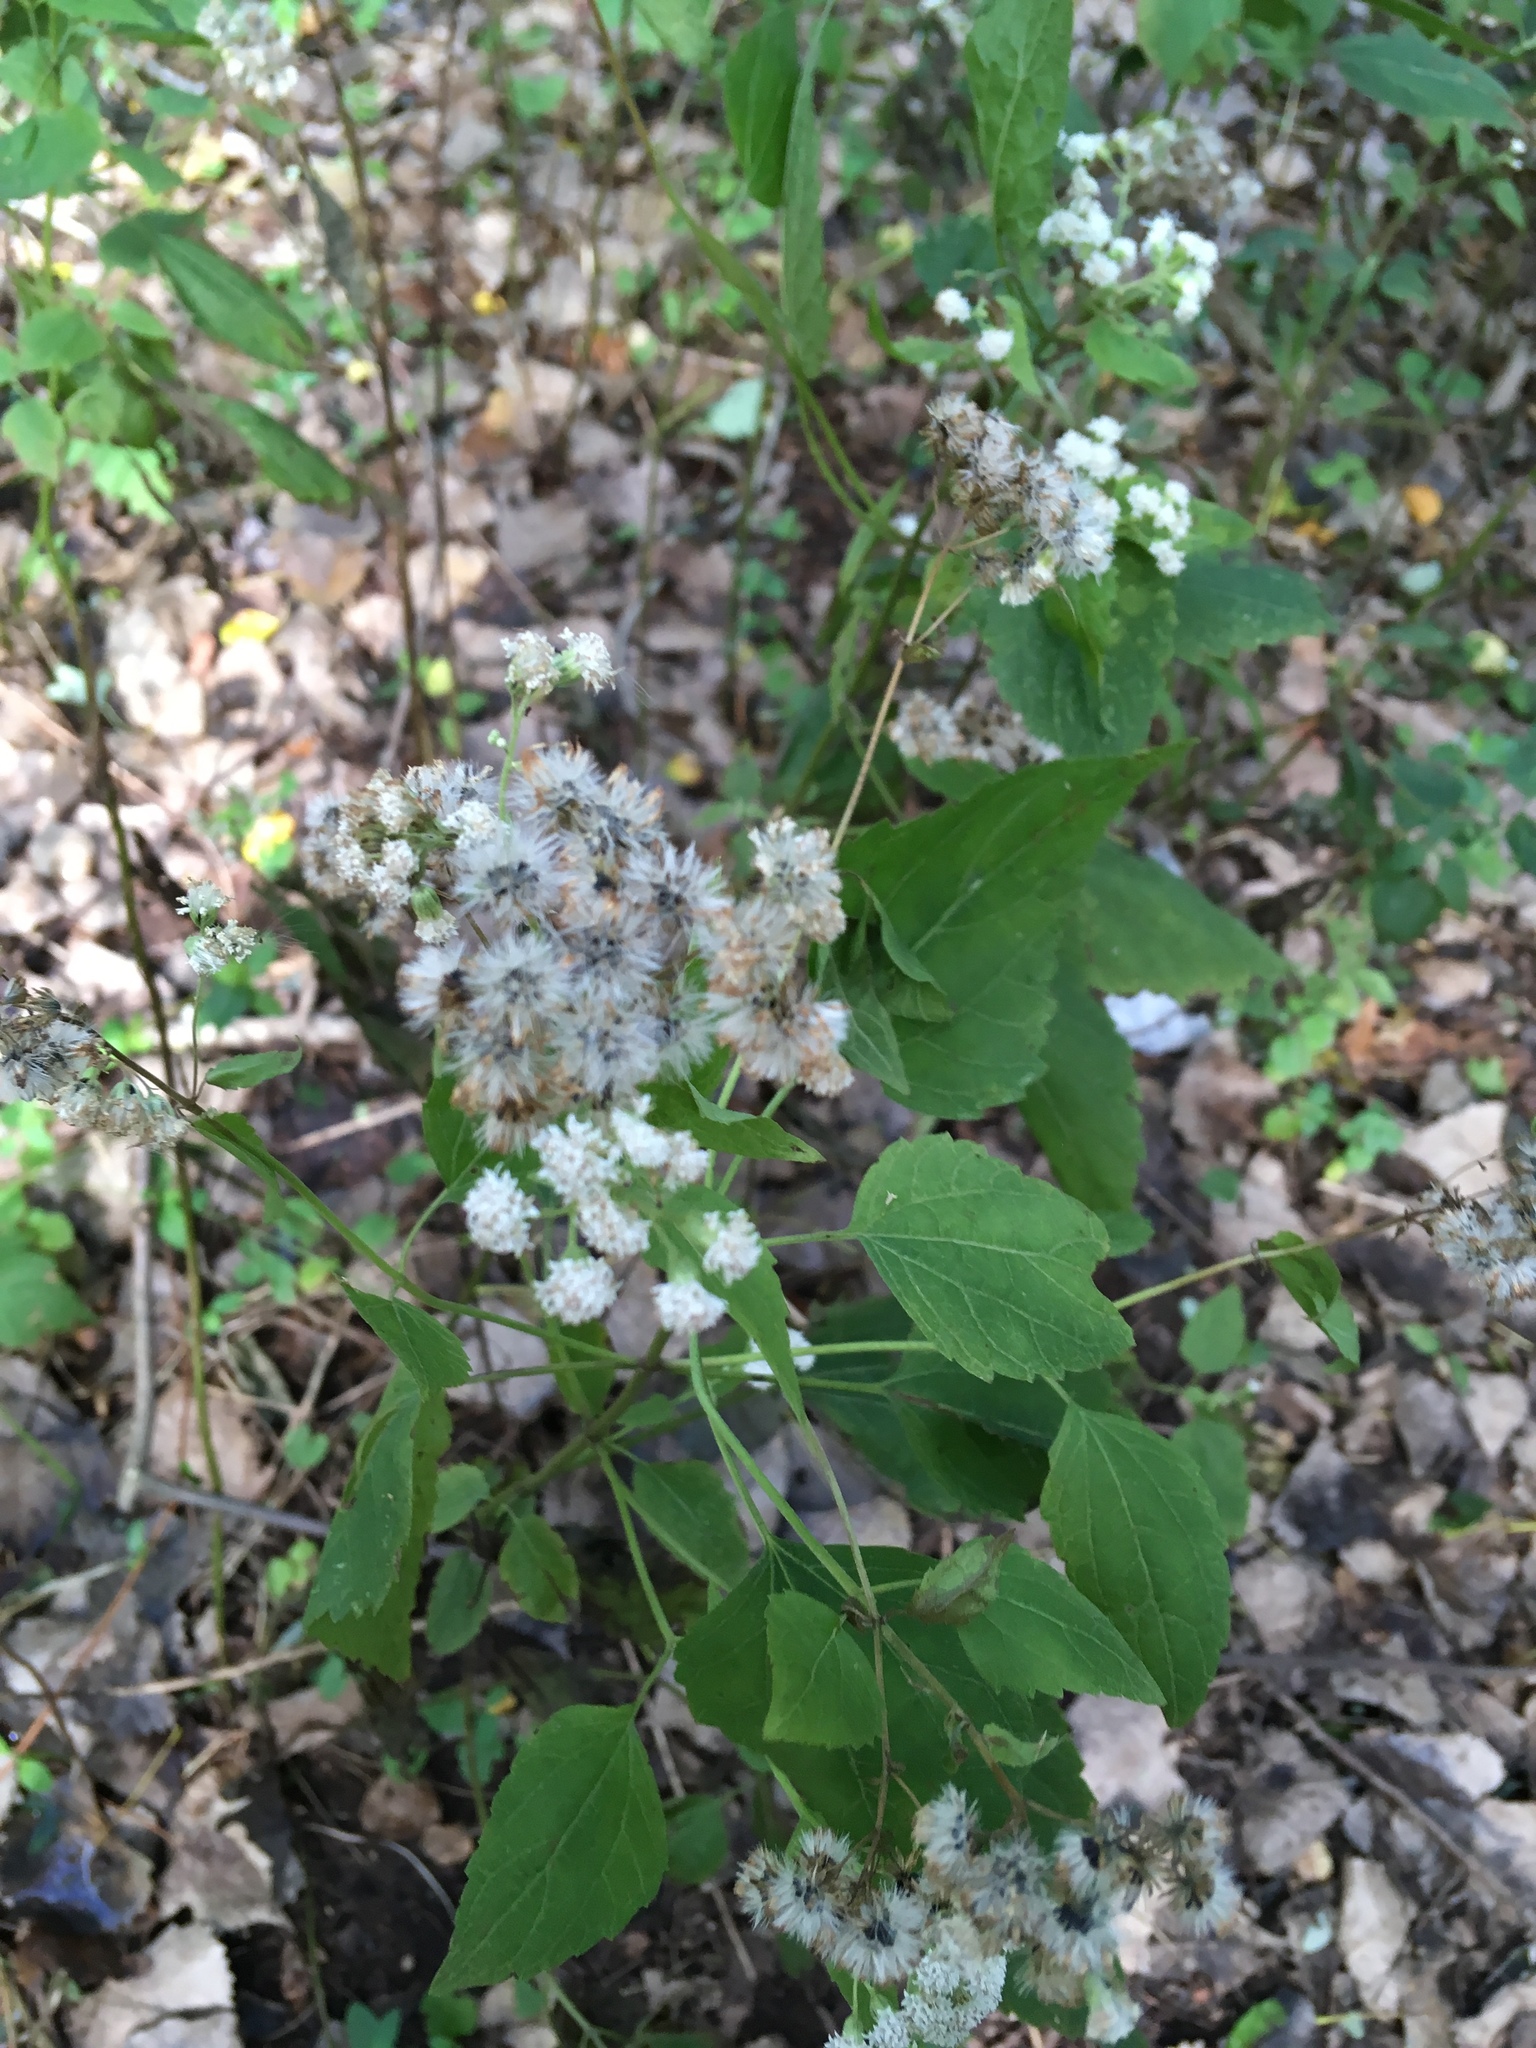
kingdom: Plantae
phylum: Tracheophyta
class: Magnoliopsida
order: Asterales
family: Asteraceae
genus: Ageratina
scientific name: Ageratina altissima
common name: White snakeroot
